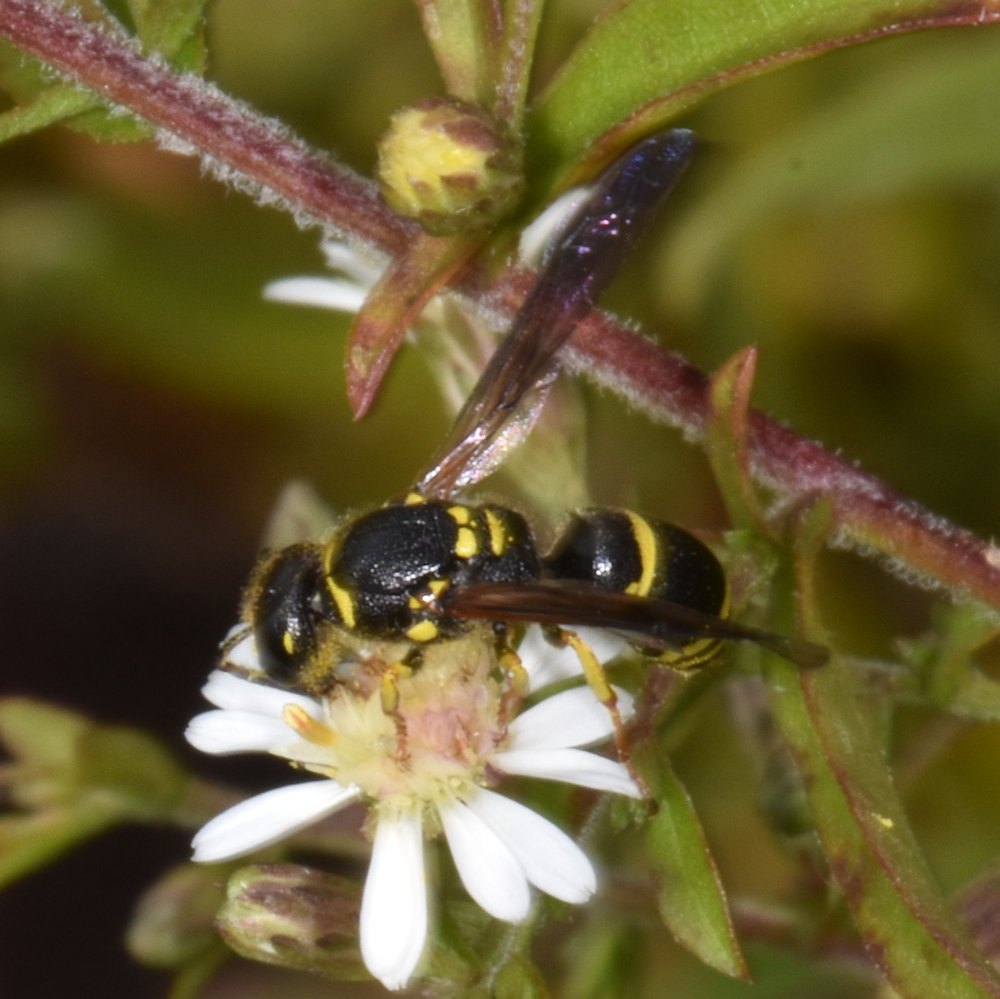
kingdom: Animalia
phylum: Arthropoda
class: Insecta
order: Hymenoptera
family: Vespidae
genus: Ancistrocerus
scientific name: Ancistrocerus adiabatus
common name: Bramble mason wasp
